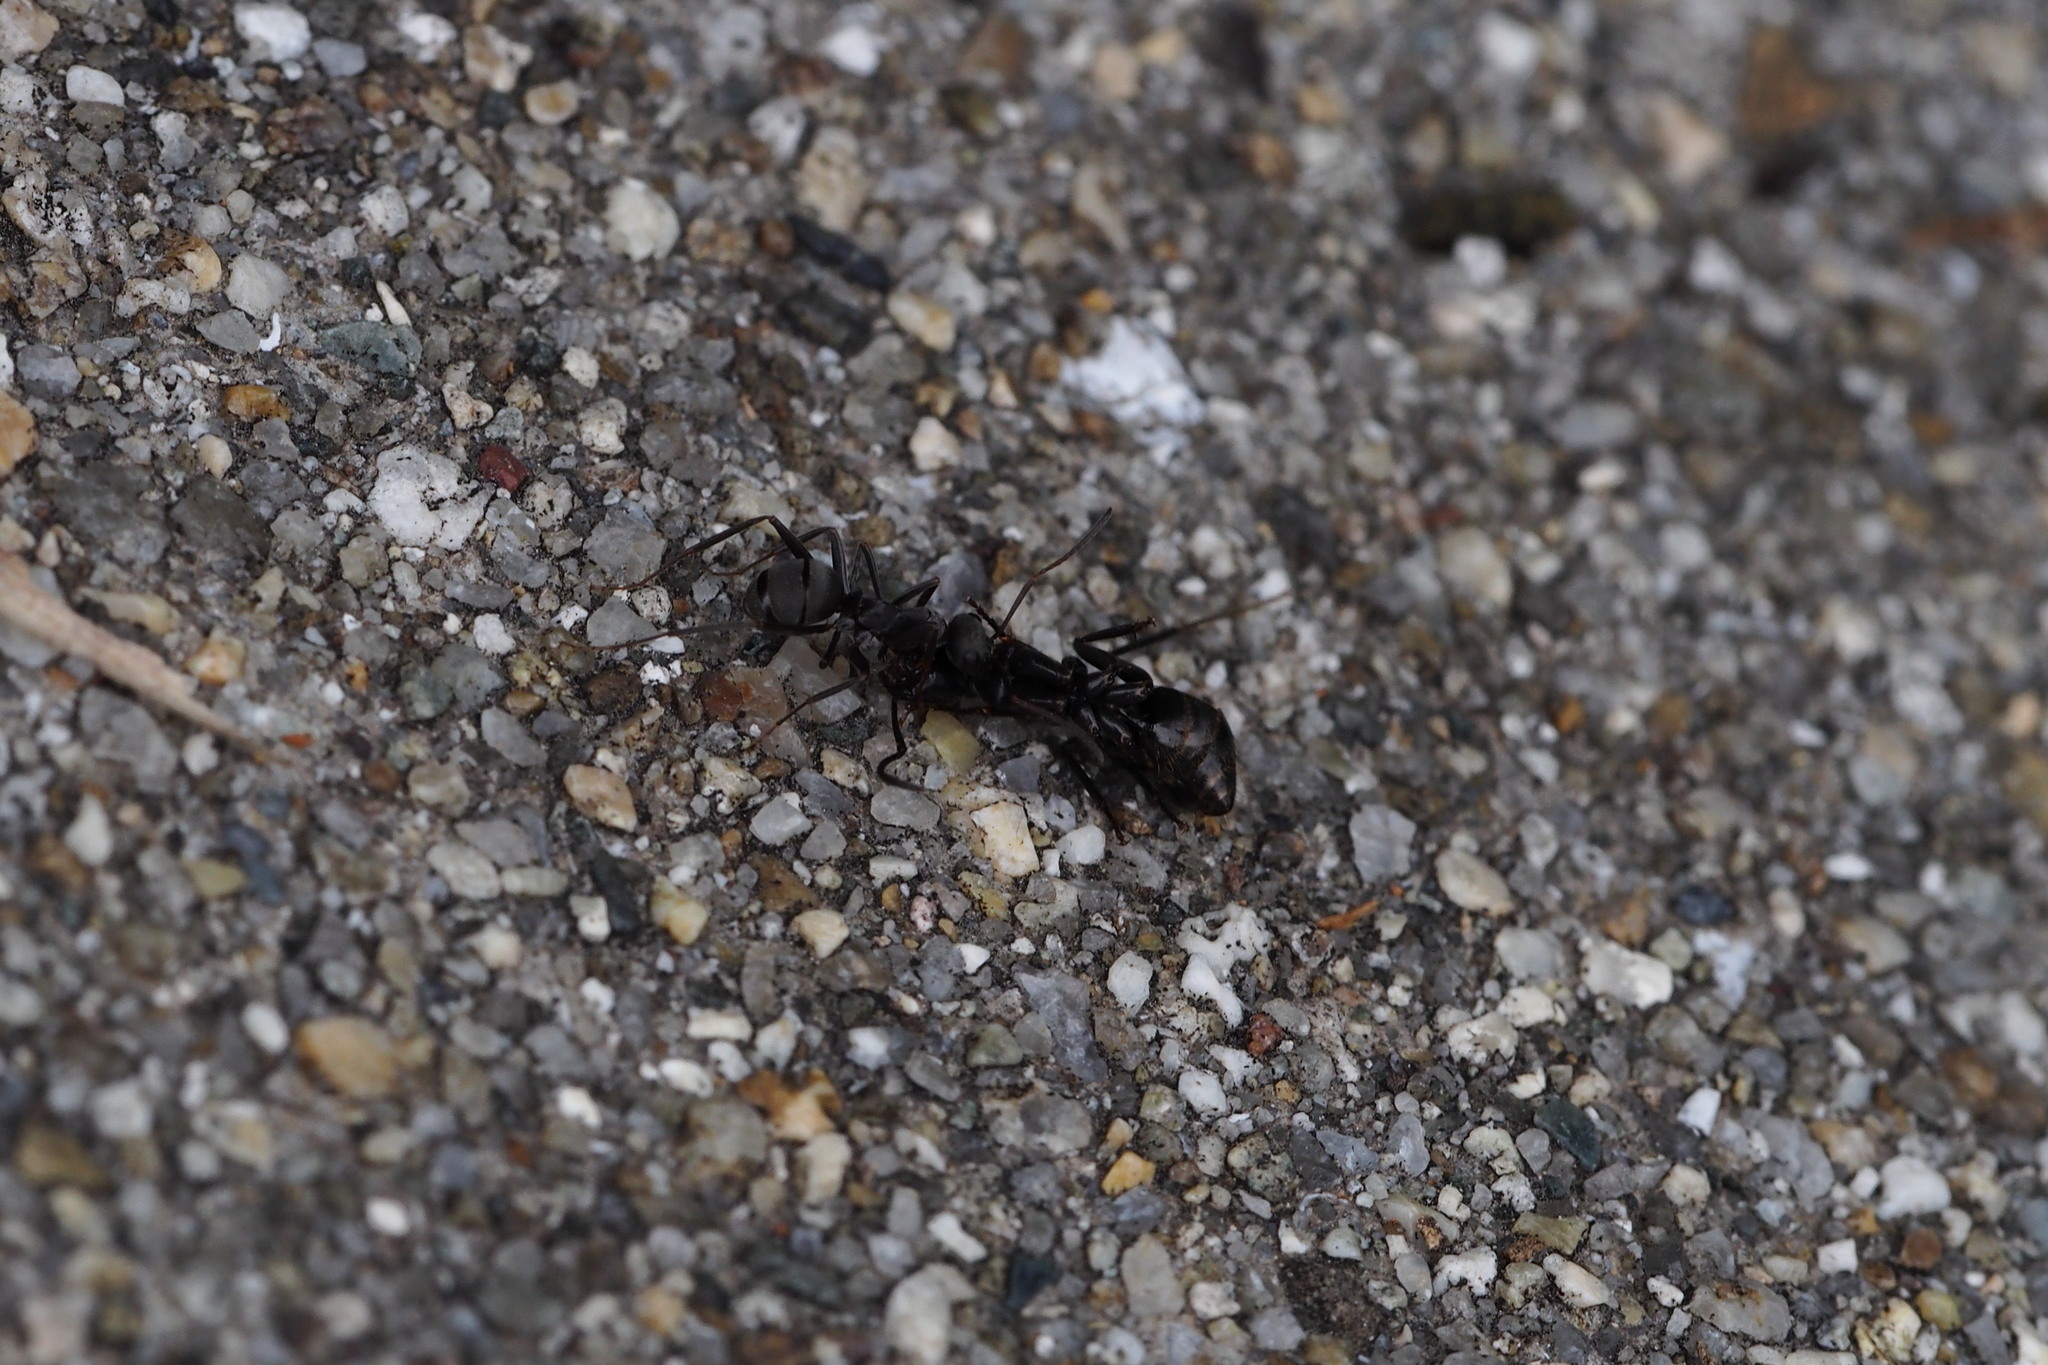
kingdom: Animalia
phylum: Arthropoda
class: Insecta
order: Hymenoptera
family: Formicidae
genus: Formica
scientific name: Formica japonica
